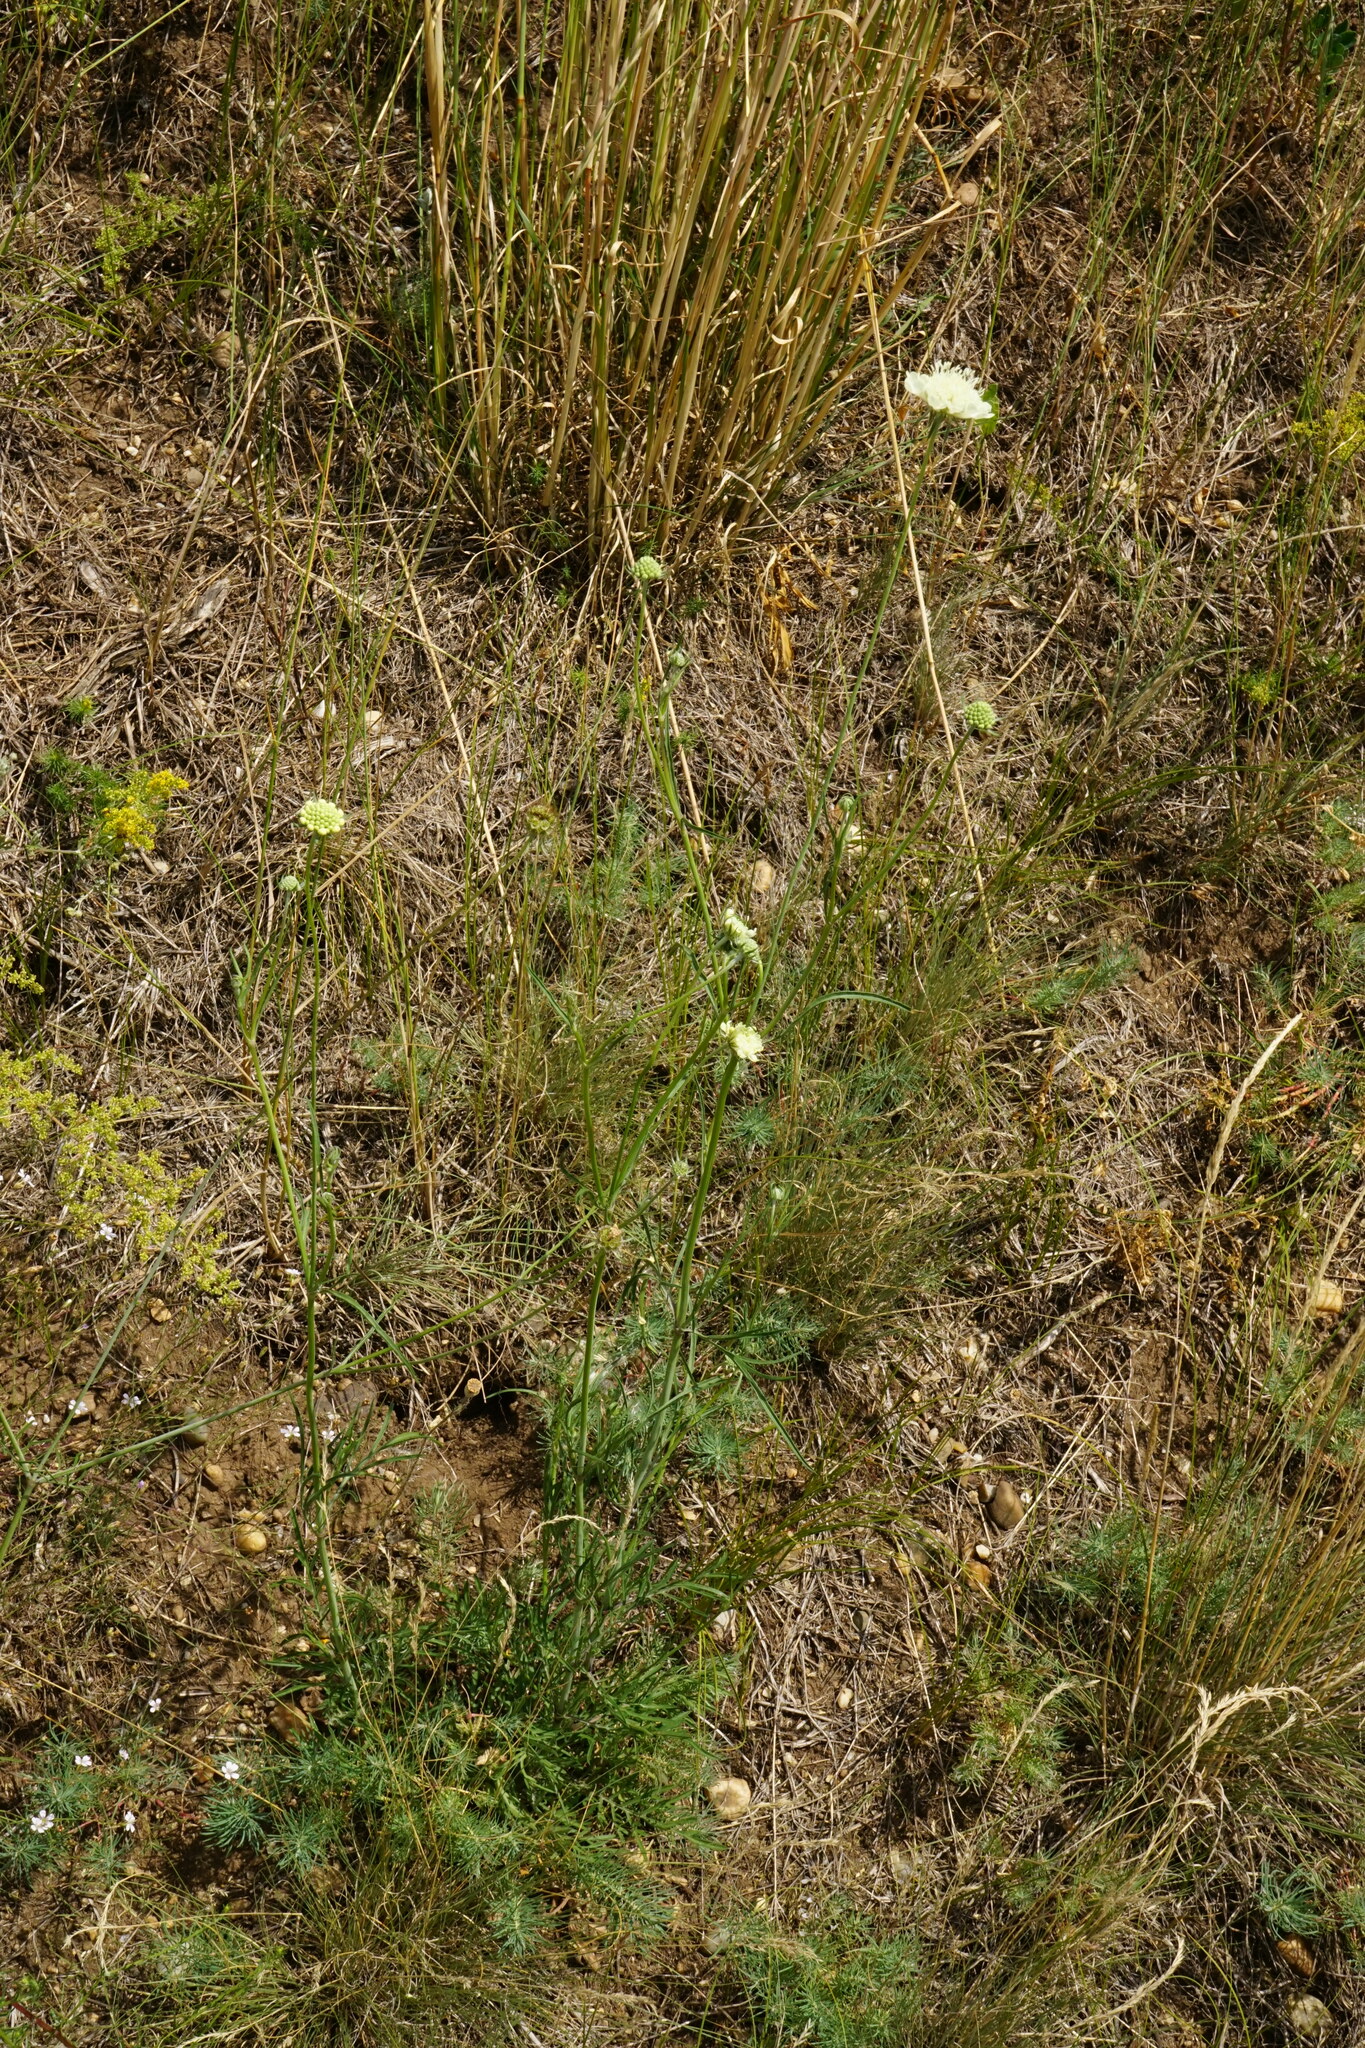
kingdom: Plantae
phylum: Tracheophyta
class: Magnoliopsida
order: Dipsacales
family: Caprifoliaceae
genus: Scabiosa
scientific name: Scabiosa ochroleuca
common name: Cream pincushions
